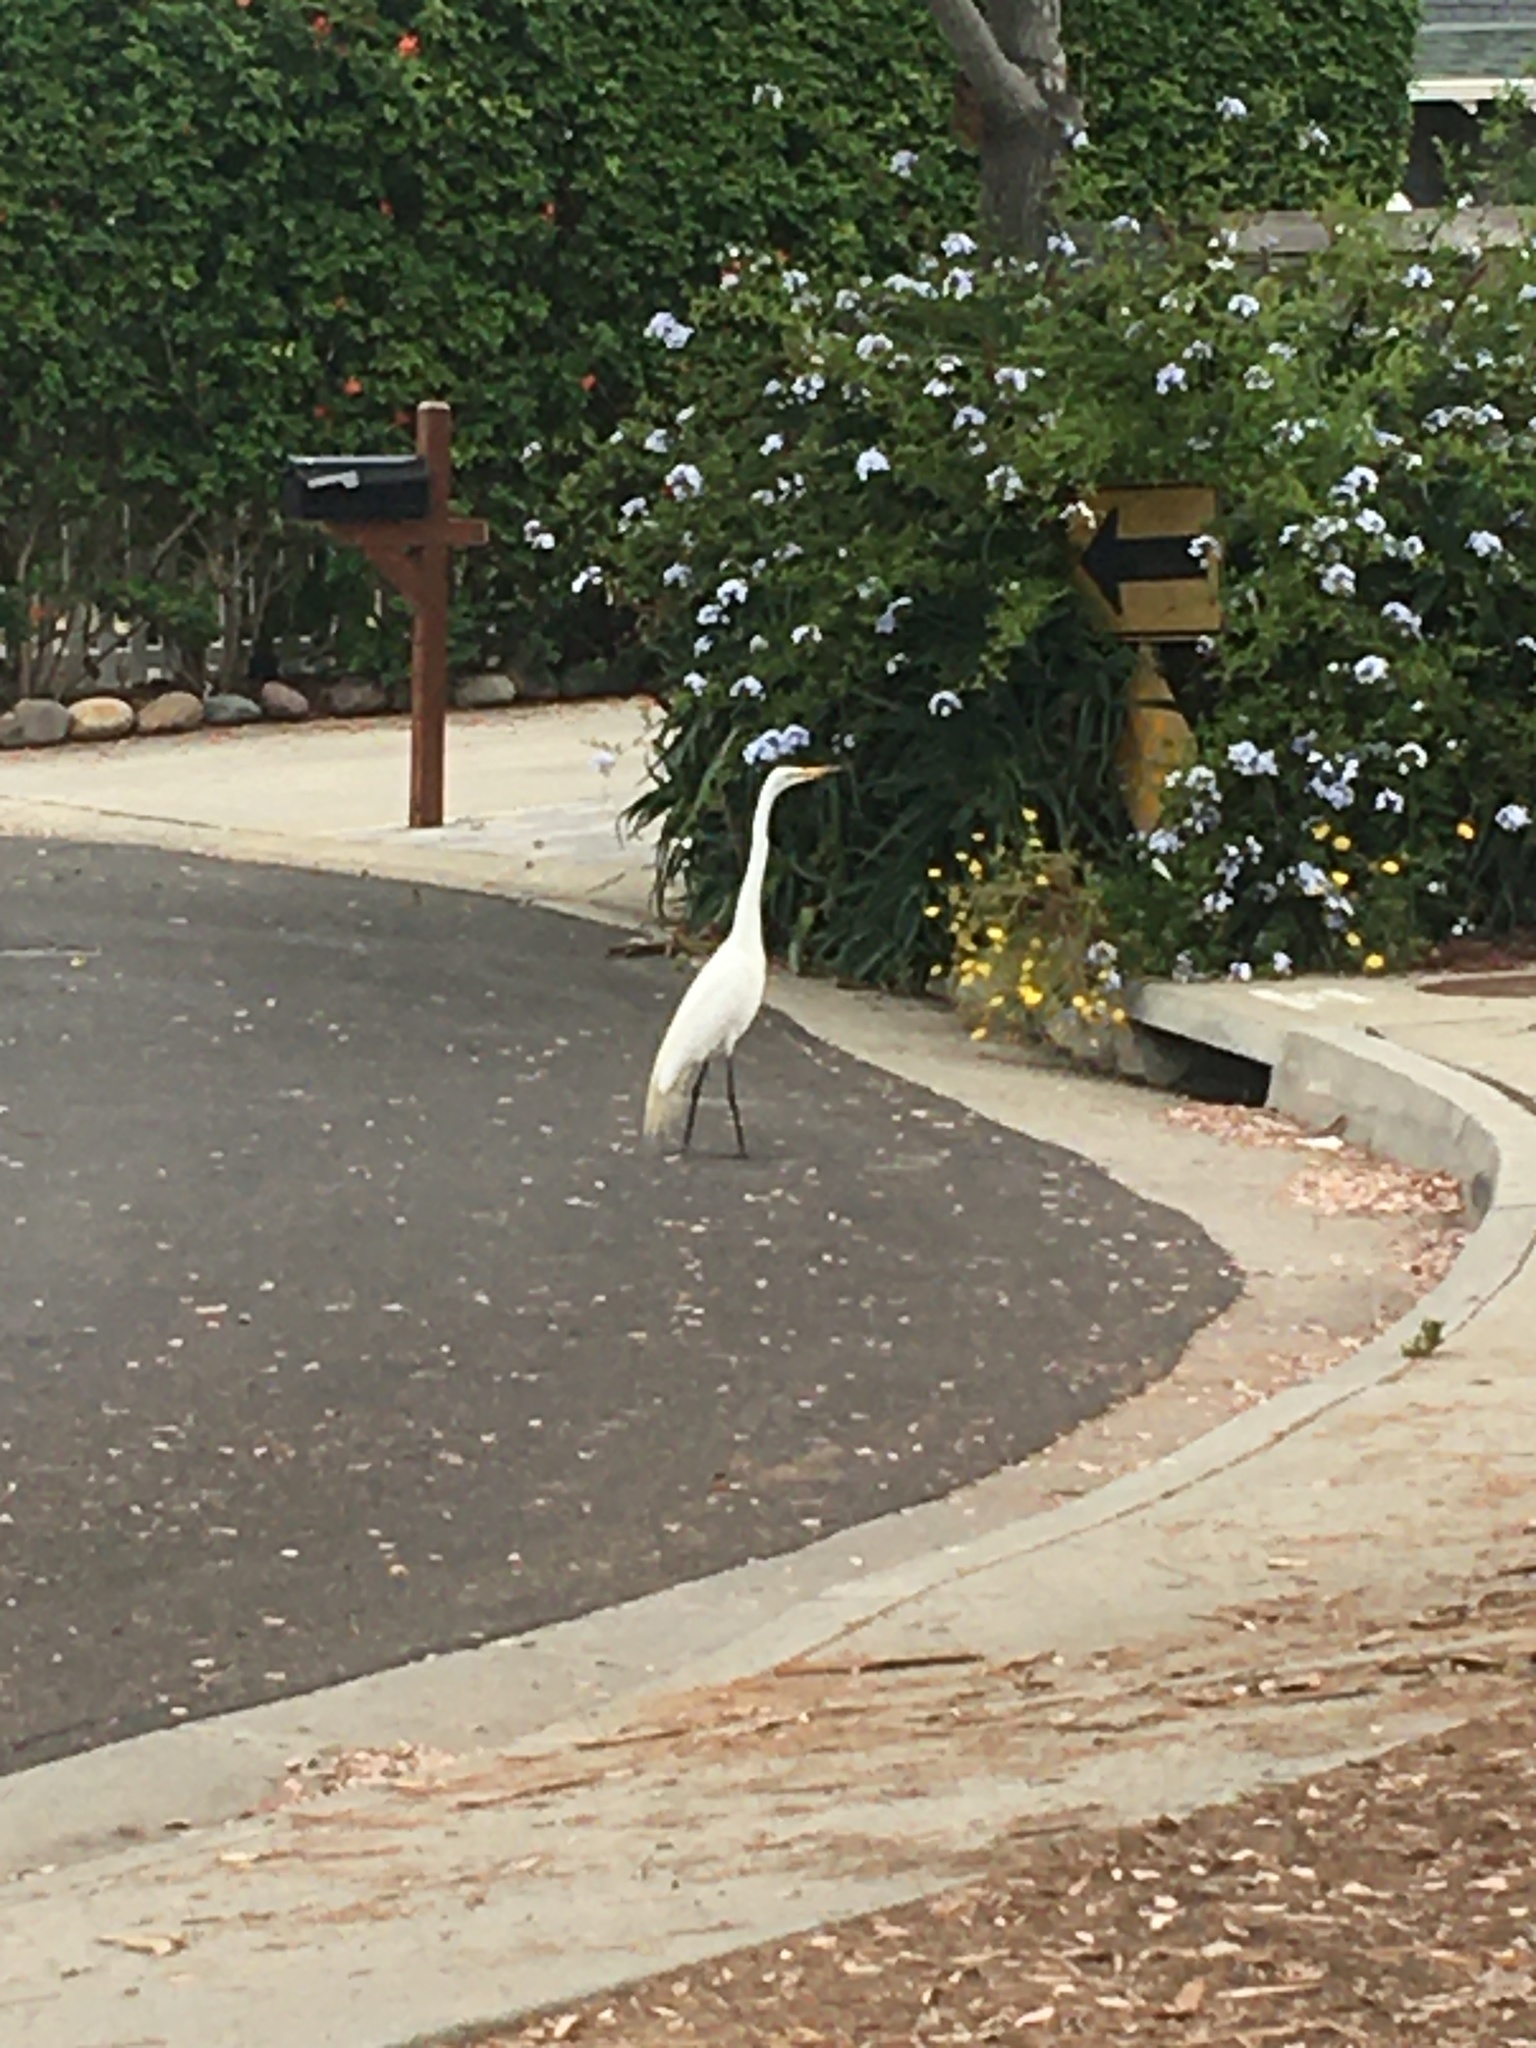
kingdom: Animalia
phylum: Chordata
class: Aves
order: Pelecaniformes
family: Ardeidae
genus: Ardea
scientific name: Ardea alba
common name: Great egret
